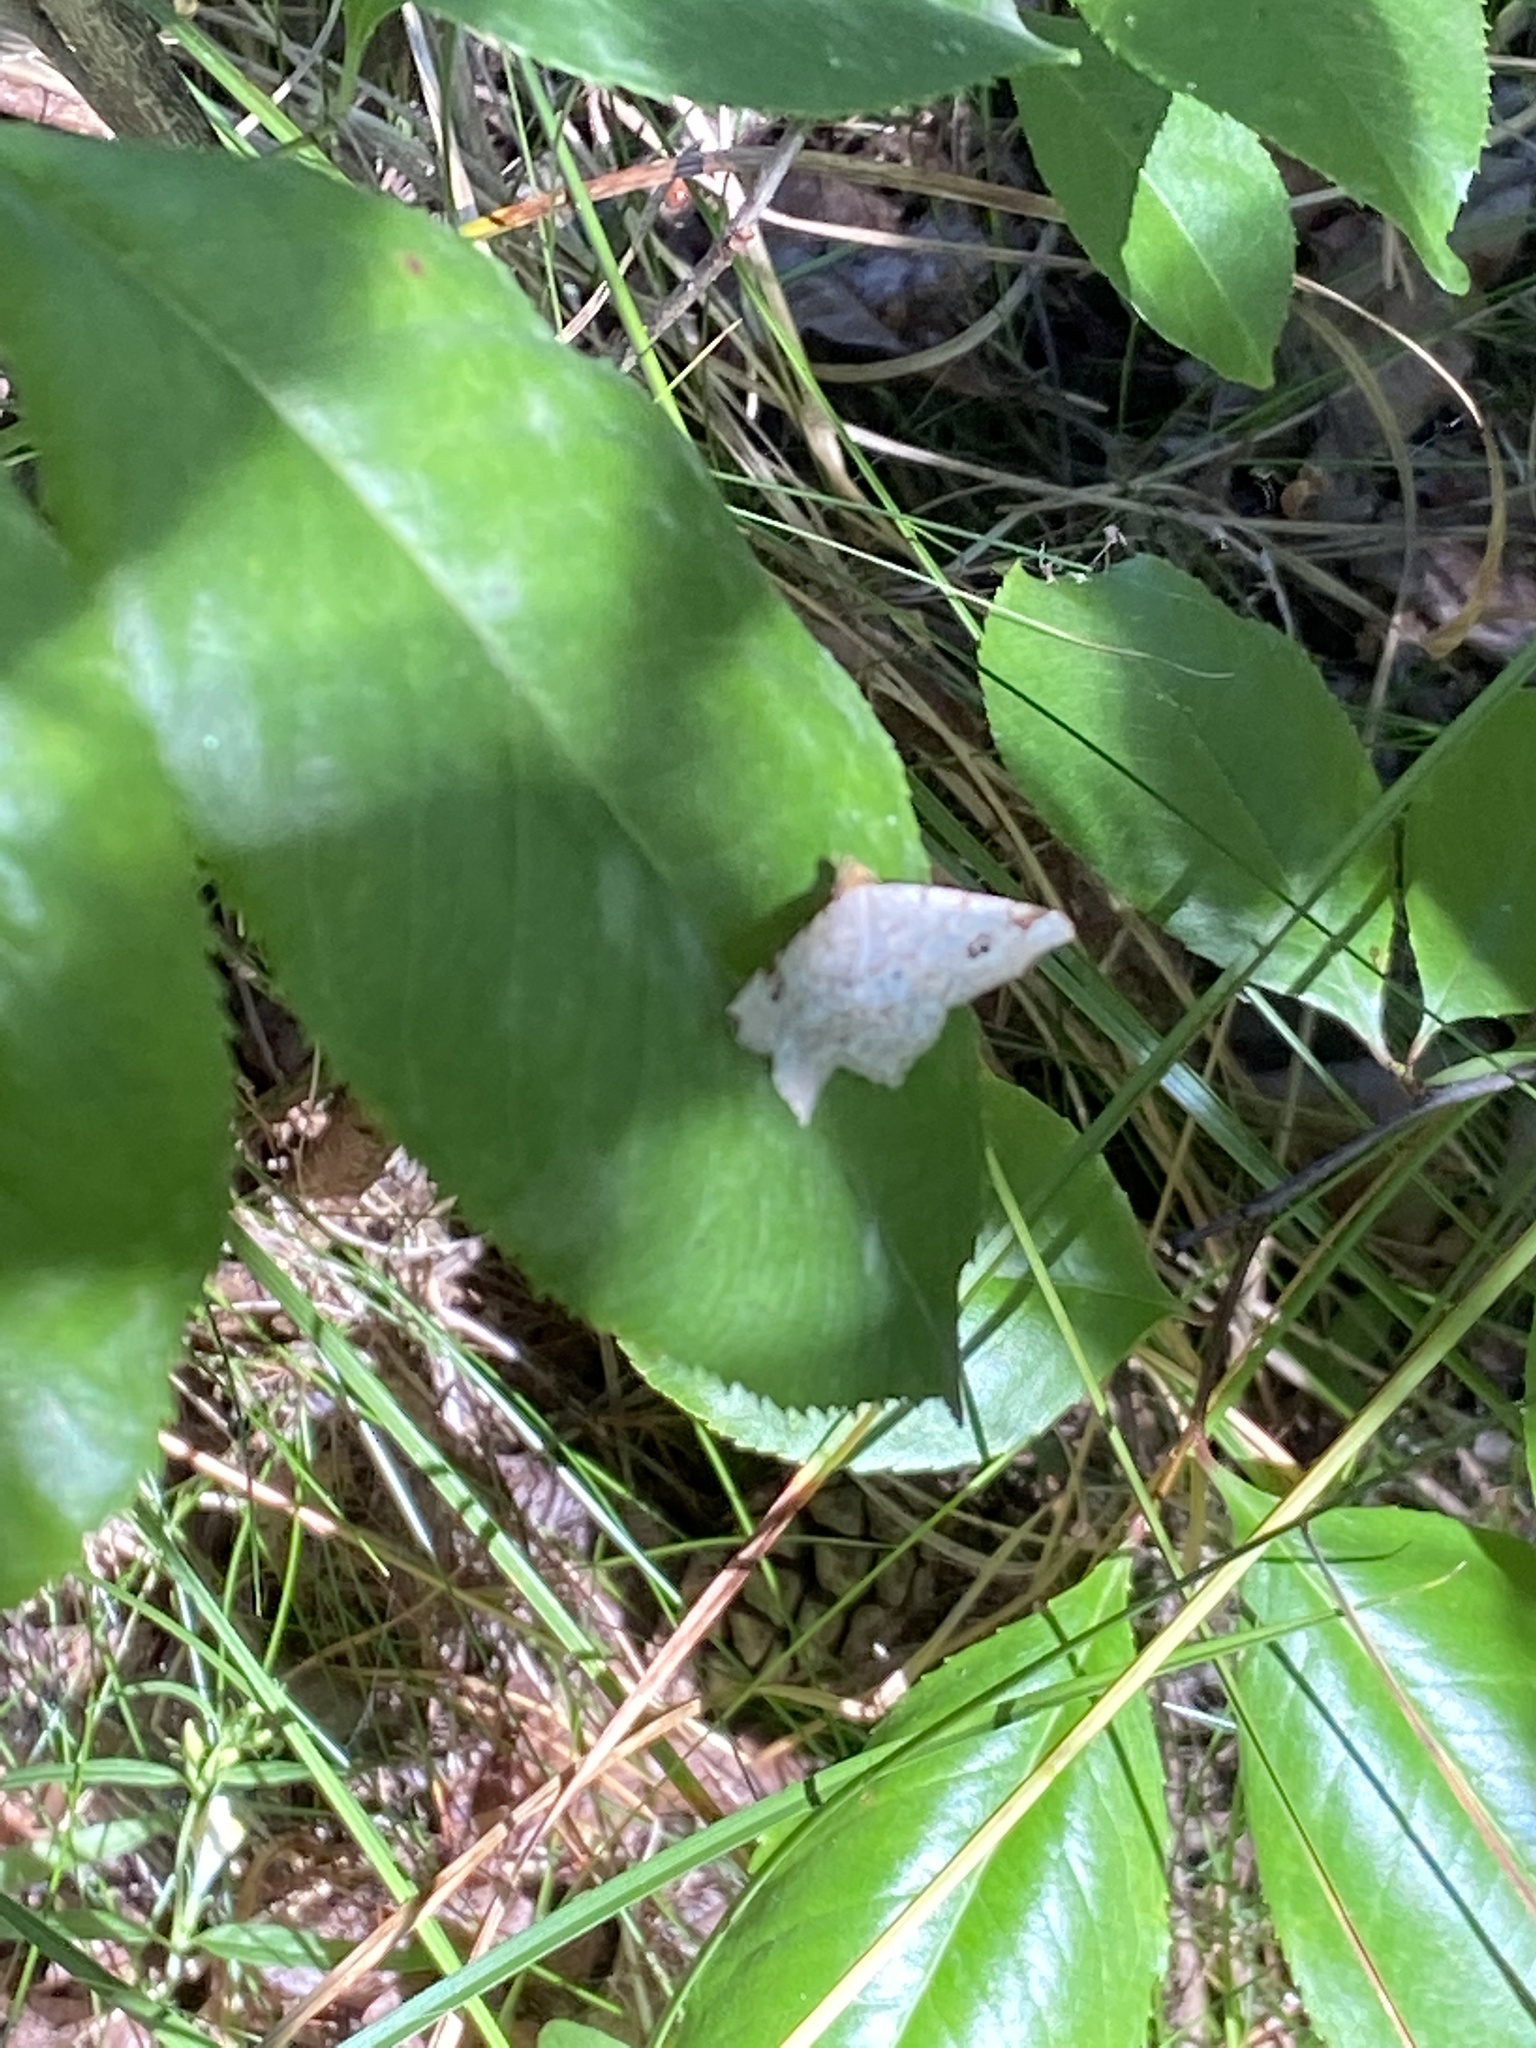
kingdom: Animalia
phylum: Arthropoda
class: Insecta
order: Lepidoptera
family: Geometridae
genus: Macaria
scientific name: Macaria notata
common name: Peacock moth
